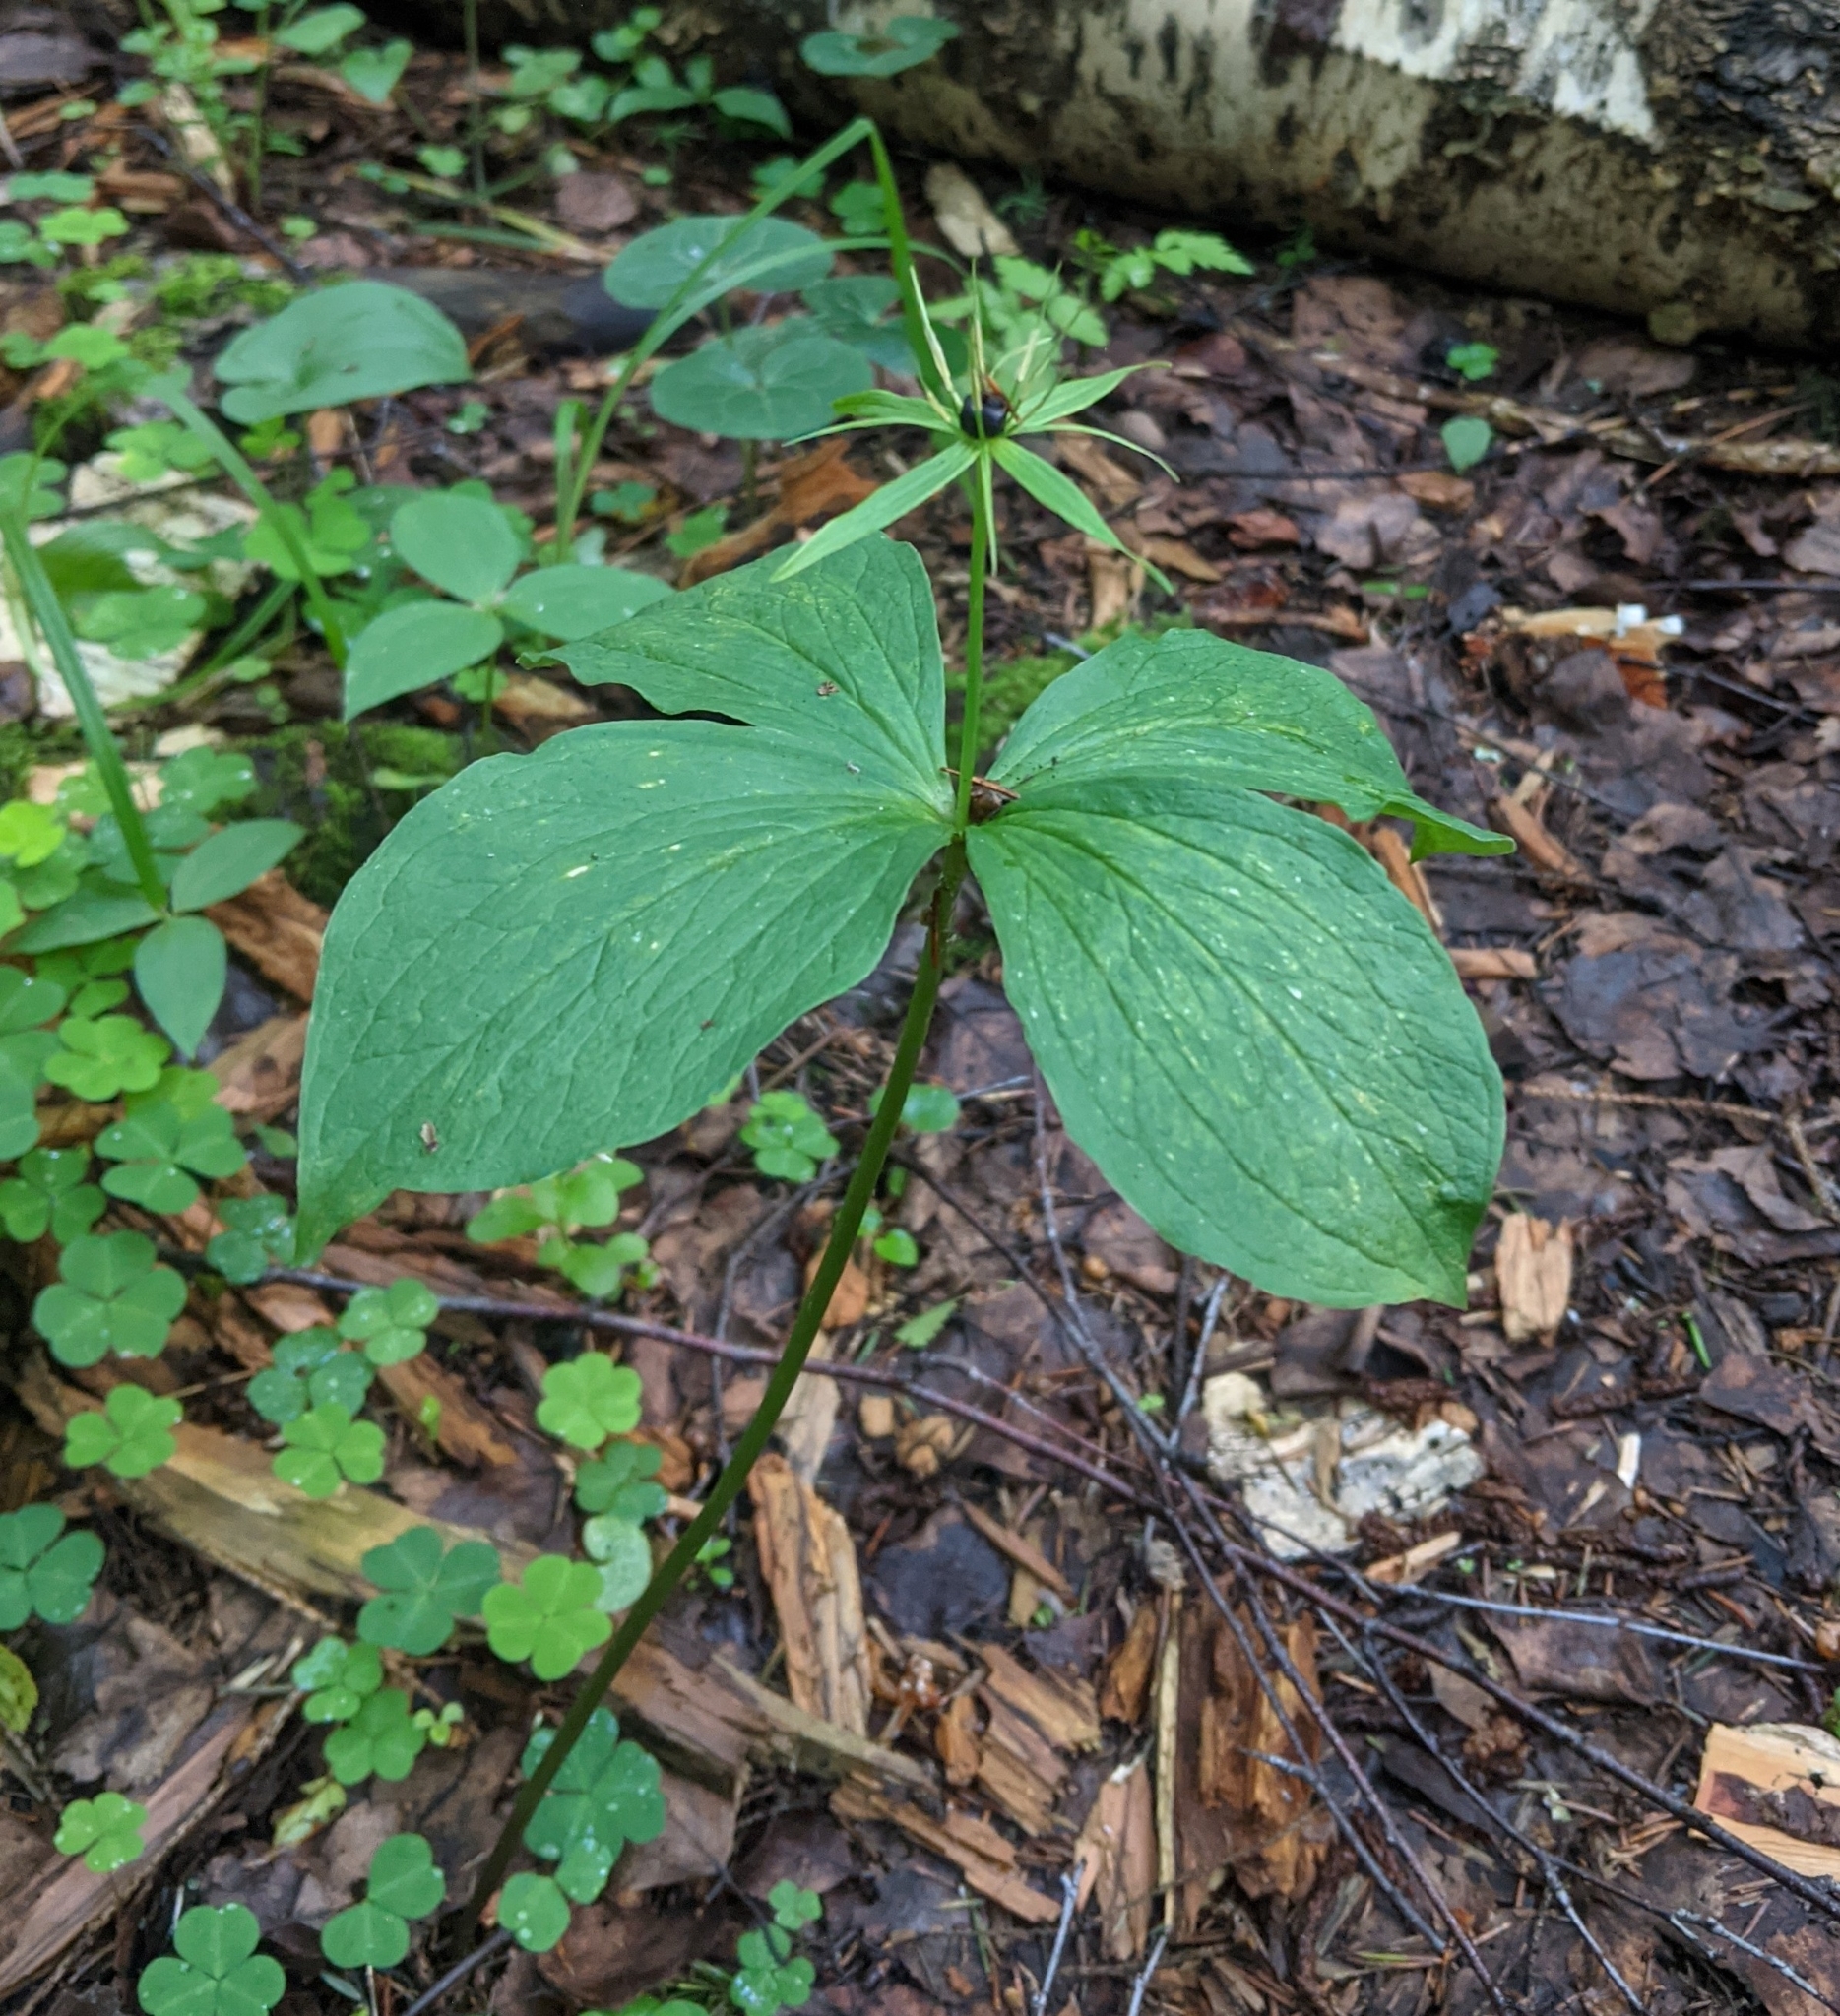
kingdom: Plantae
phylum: Tracheophyta
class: Liliopsida
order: Liliales
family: Melanthiaceae
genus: Paris
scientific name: Paris quadrifolia
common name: Herb-paris
